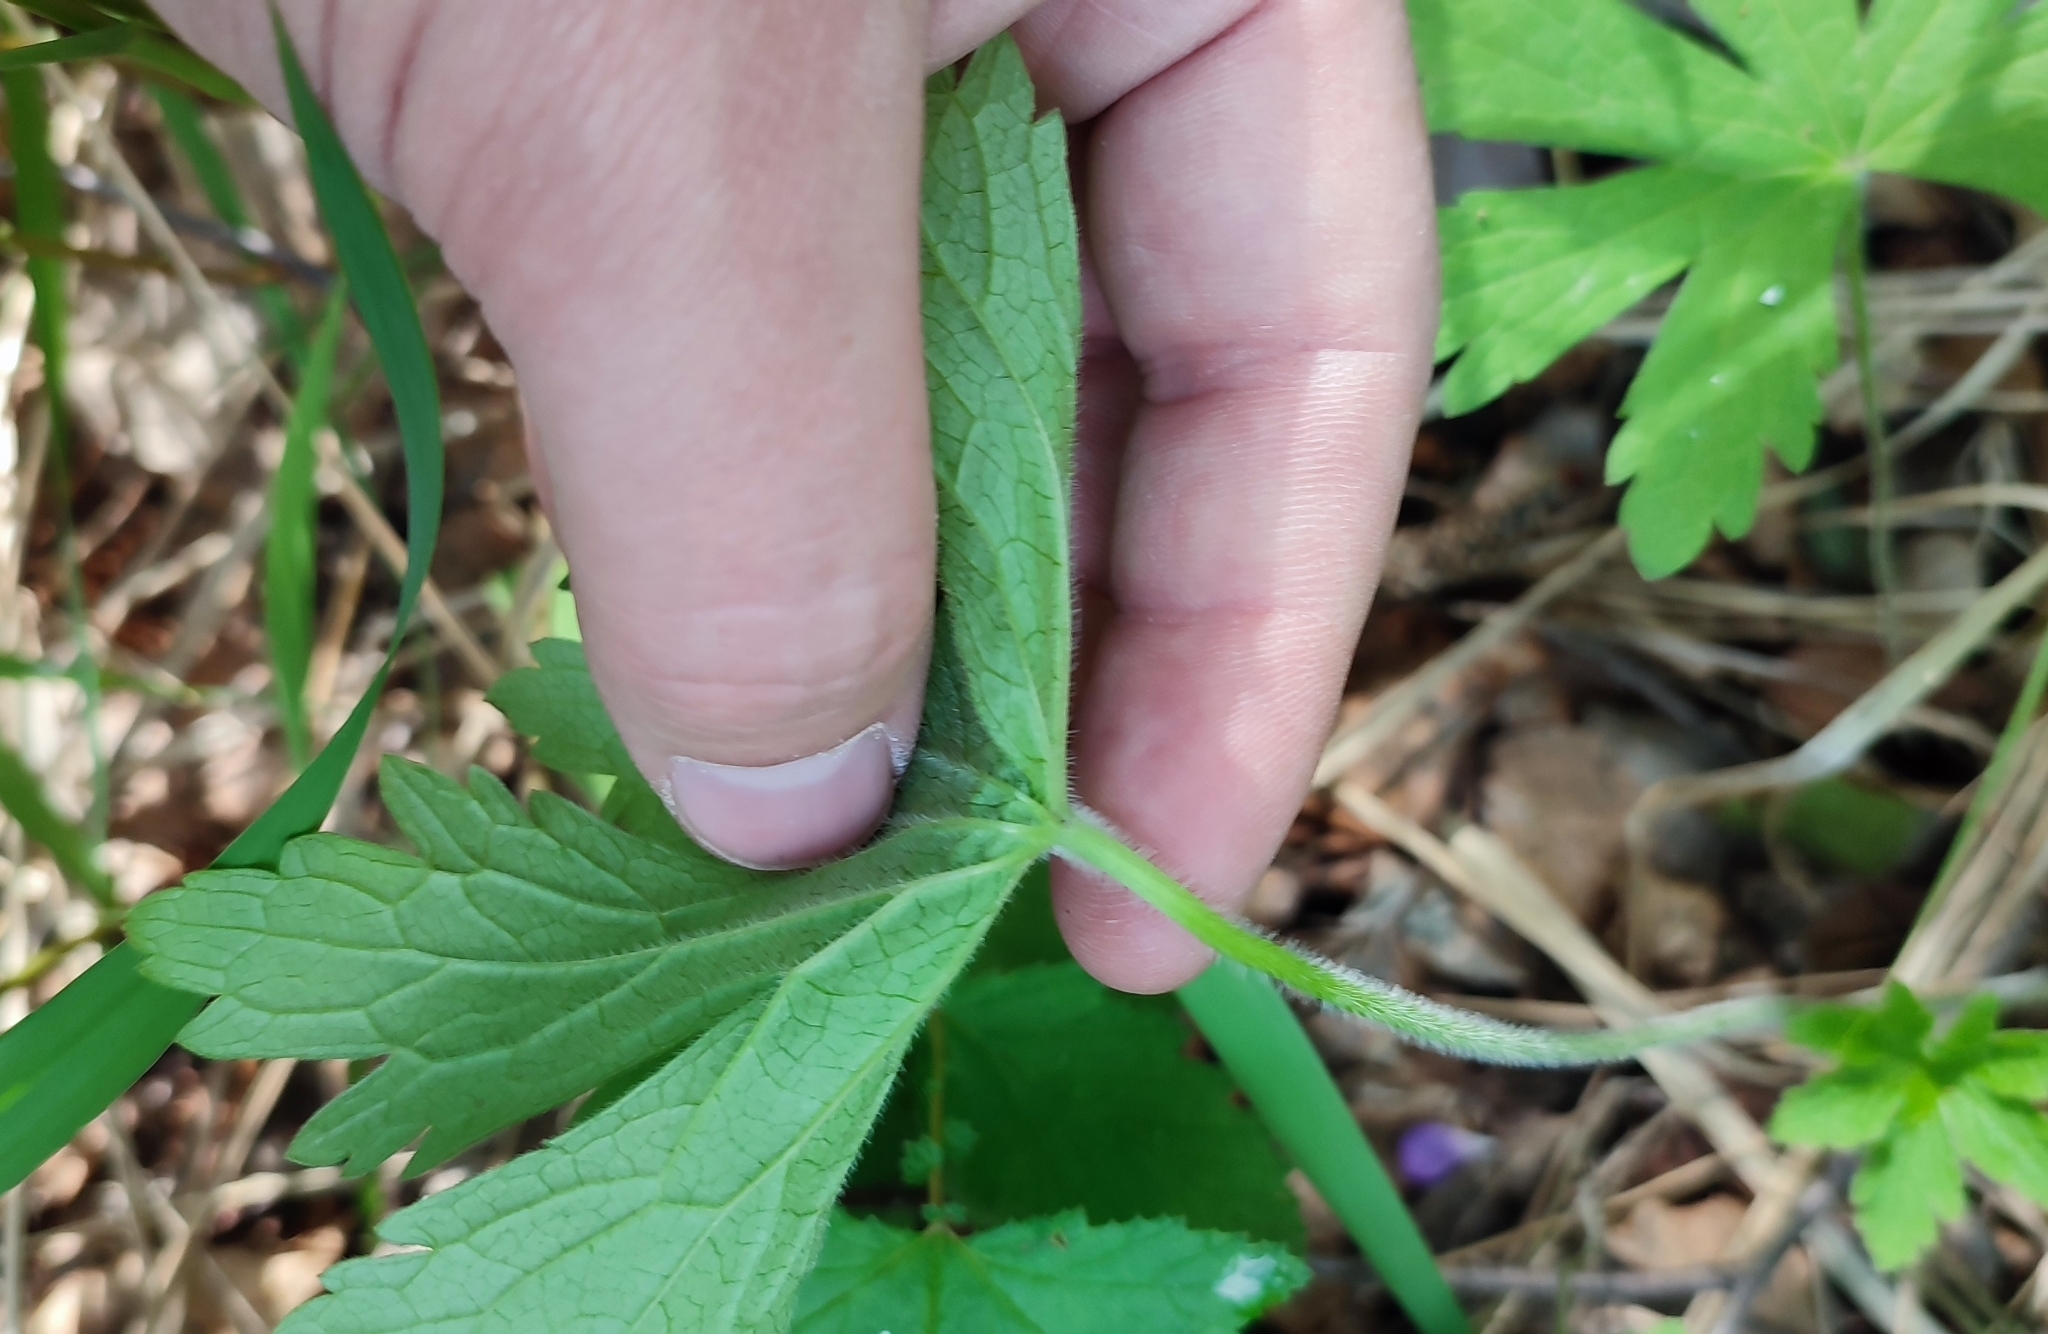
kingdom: Plantae
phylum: Tracheophyta
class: Magnoliopsida
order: Geraniales
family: Geraniaceae
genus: Geranium
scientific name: Geranium sylvaticum
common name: Wood crane's-bill
